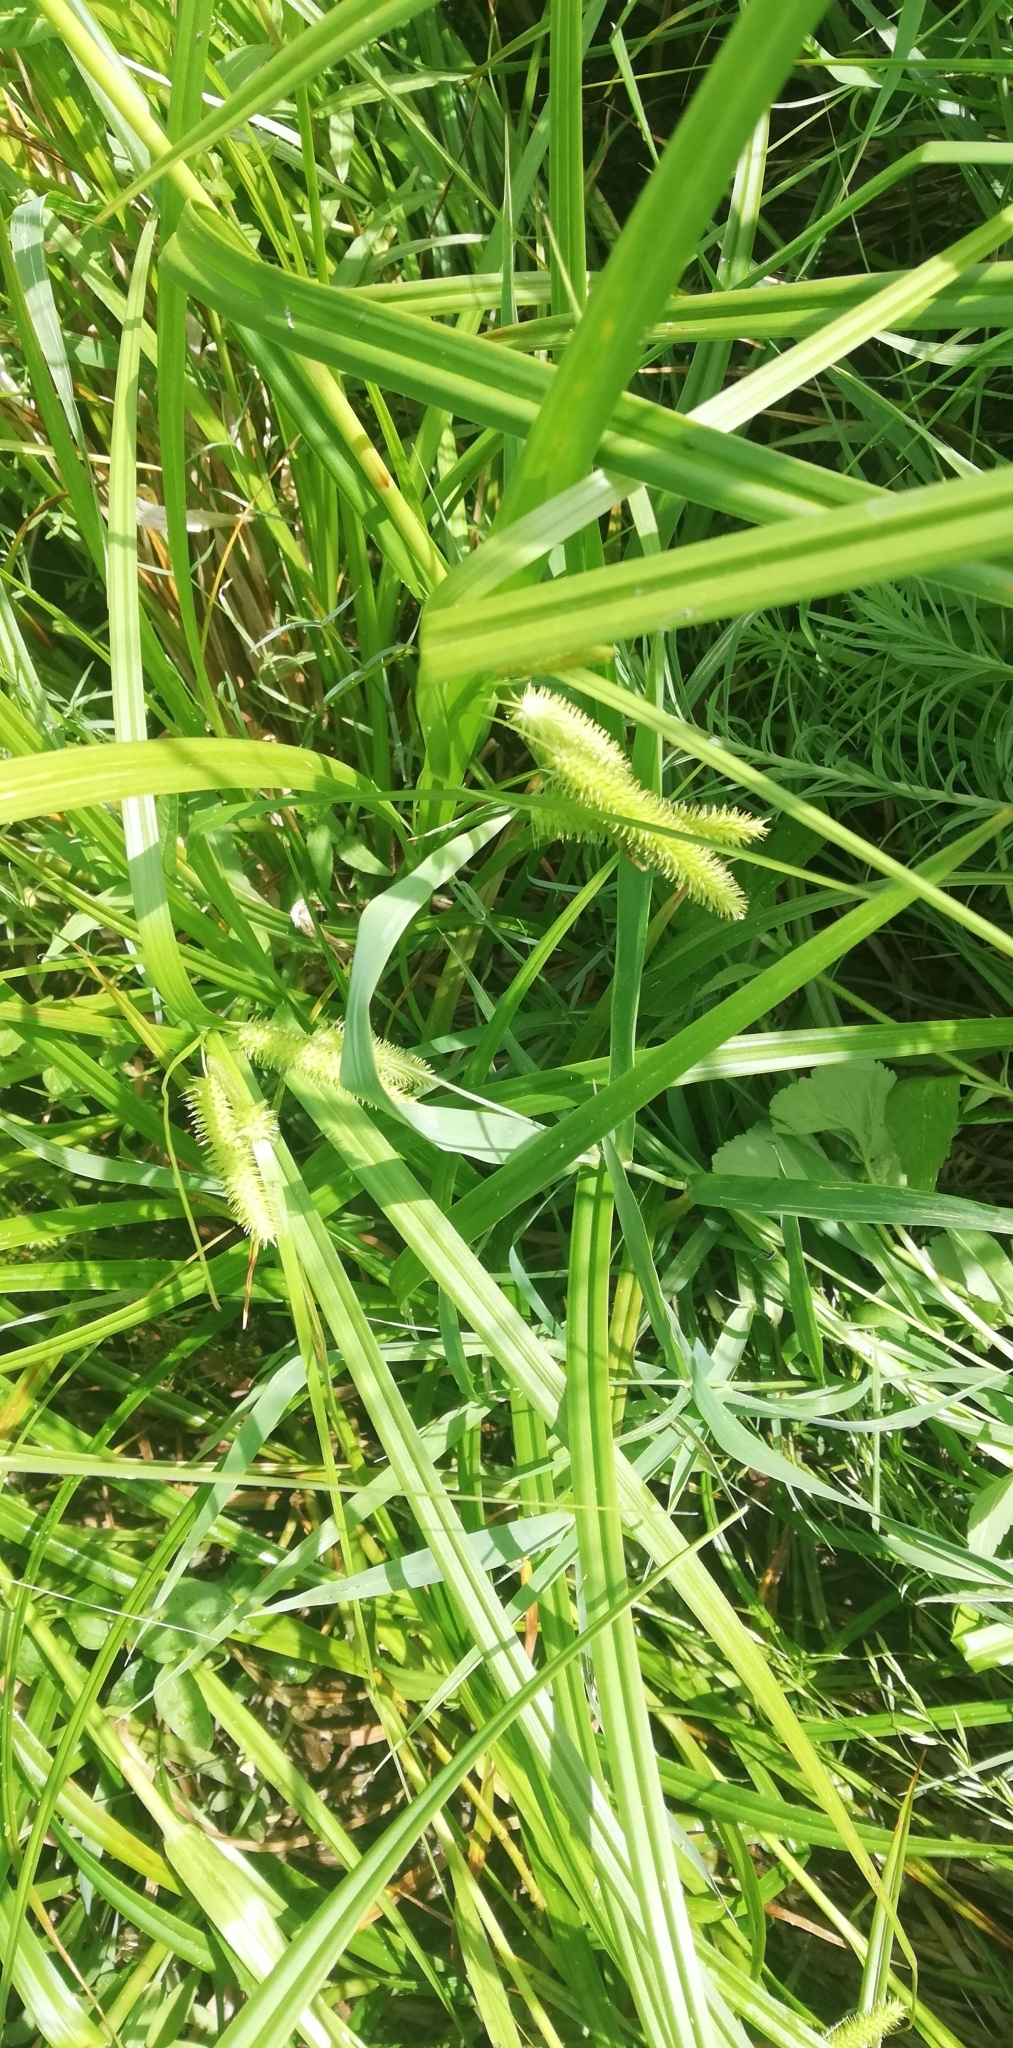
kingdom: Plantae
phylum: Tracheophyta
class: Liliopsida
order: Poales
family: Cyperaceae
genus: Carex
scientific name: Carex pseudocyperus
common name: Cyperus sedge
